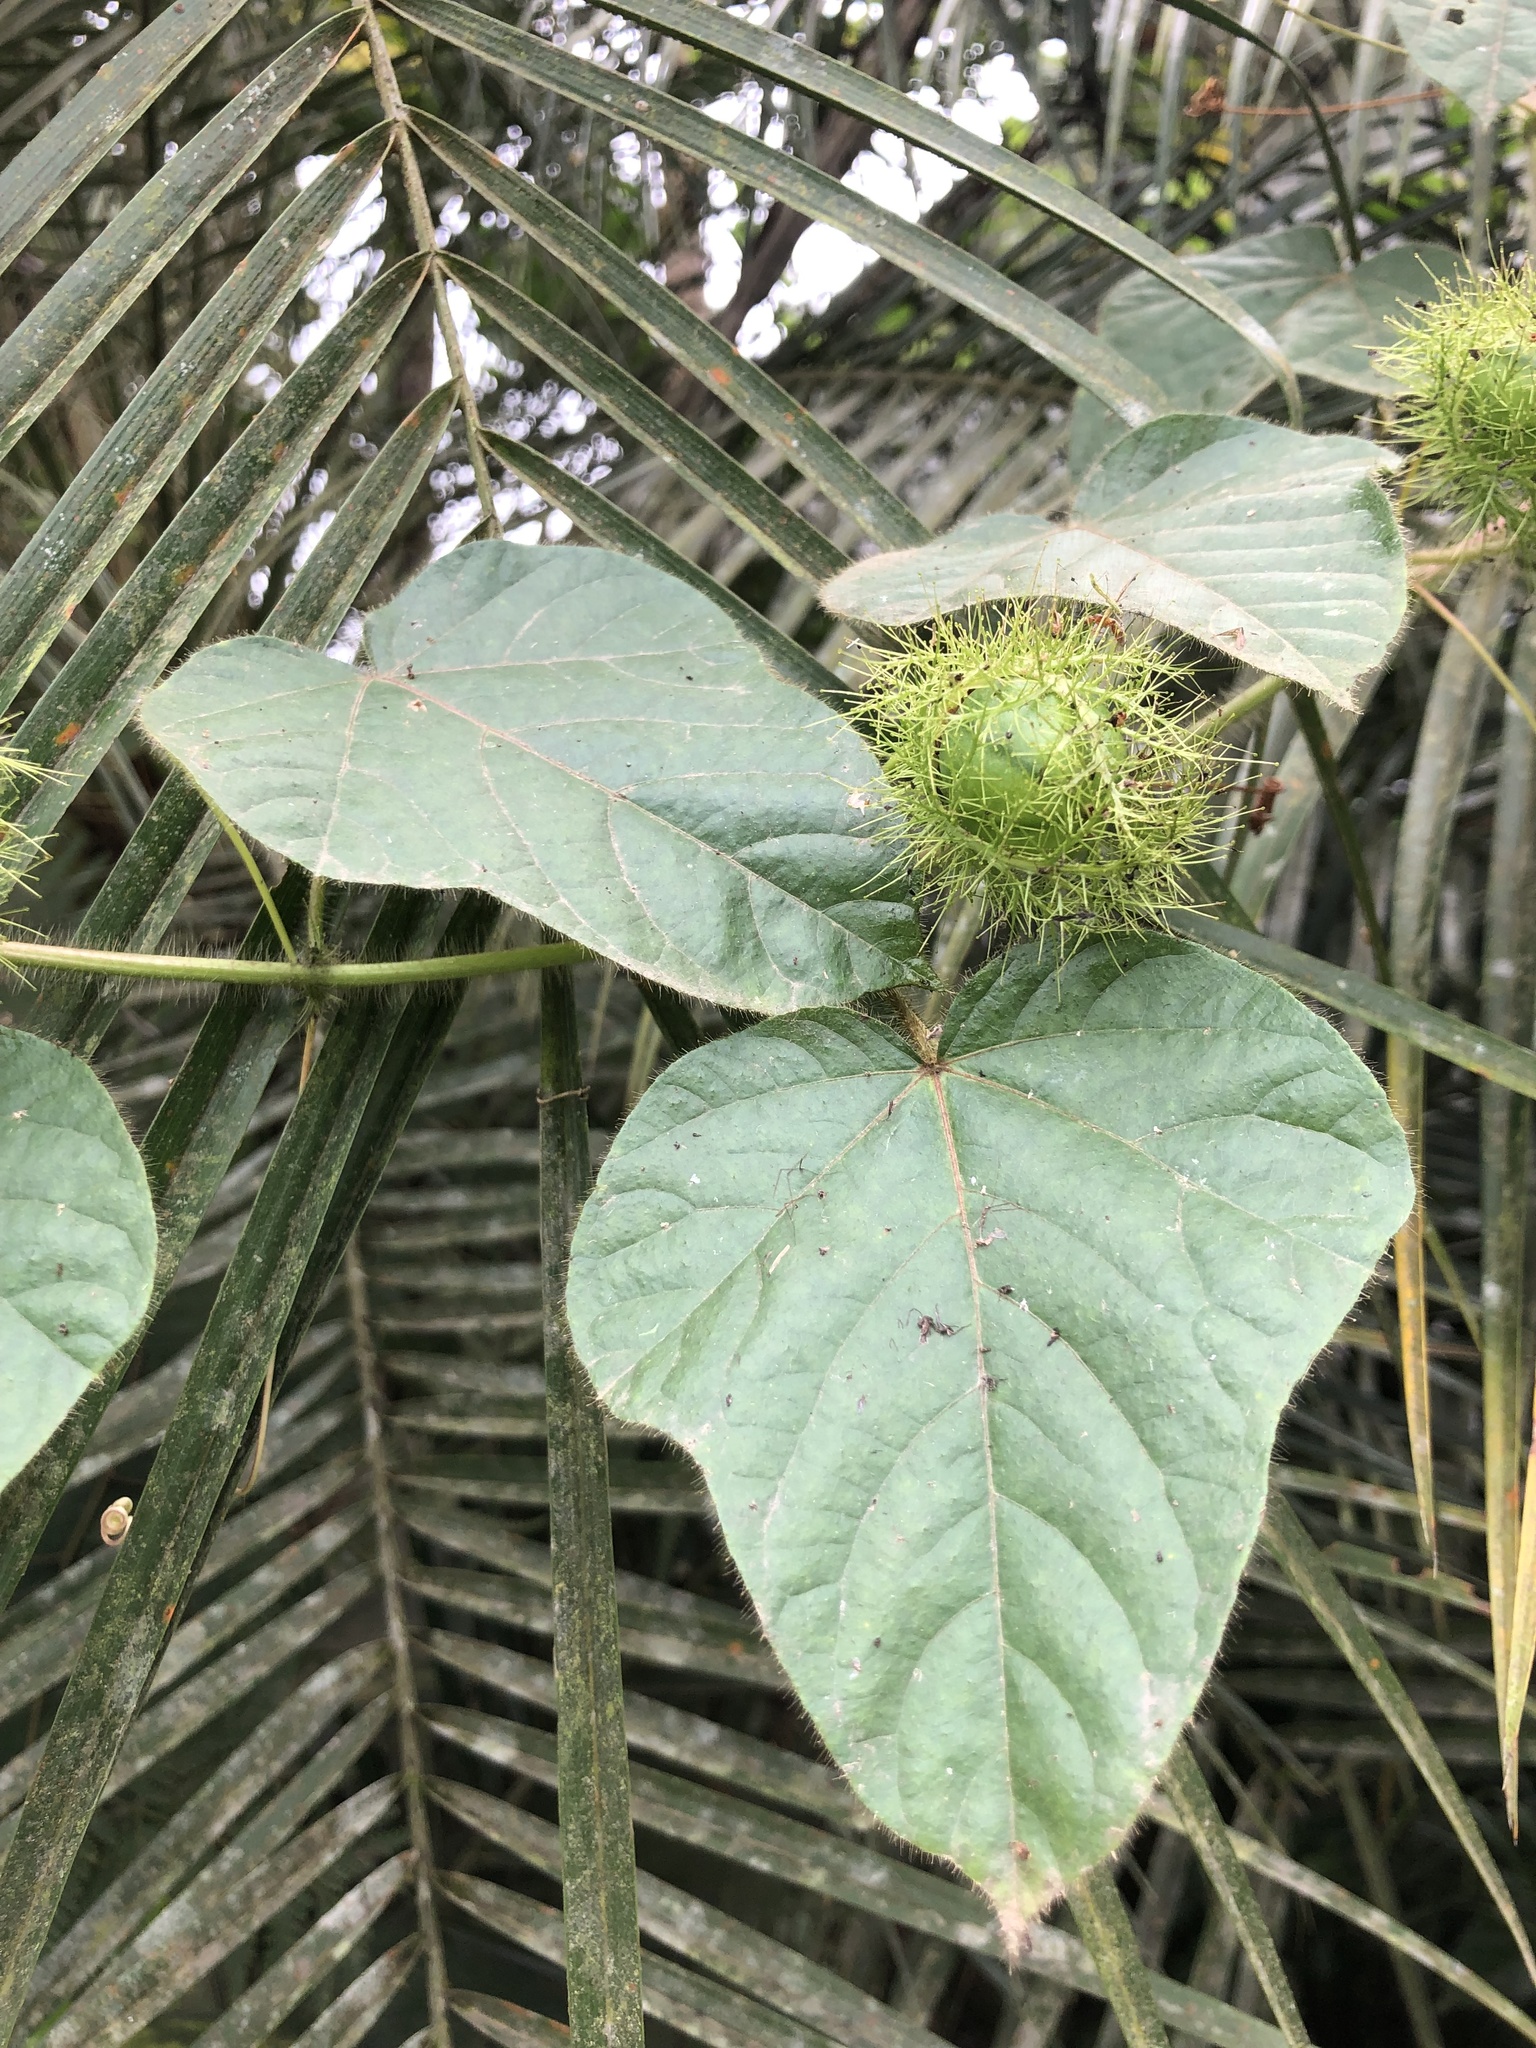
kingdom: Plantae
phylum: Tracheophyta
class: Magnoliopsida
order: Malpighiales
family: Passifloraceae
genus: Passiflora
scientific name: Passiflora foetida
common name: Fetid passionflower
